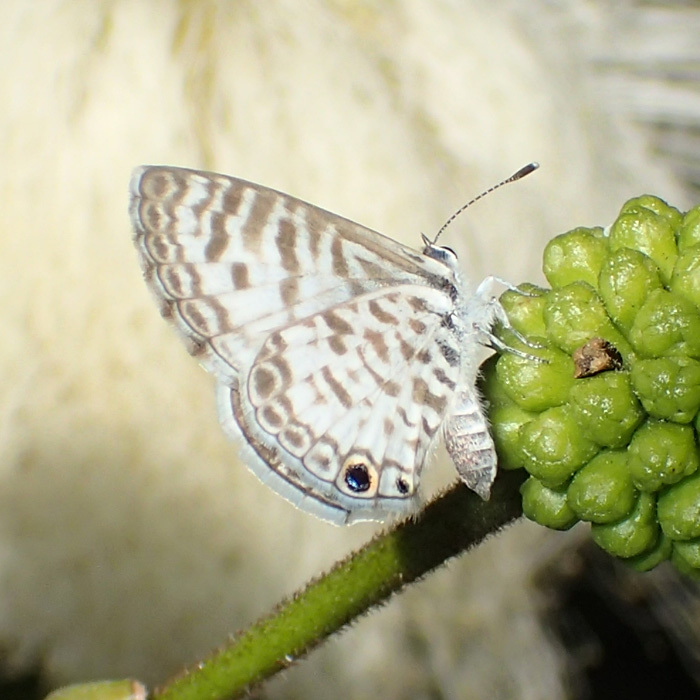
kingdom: Animalia
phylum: Arthropoda
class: Insecta
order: Lepidoptera
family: Lycaenidae
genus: Leptotes
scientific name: Leptotes cassius
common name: Cassius blue
